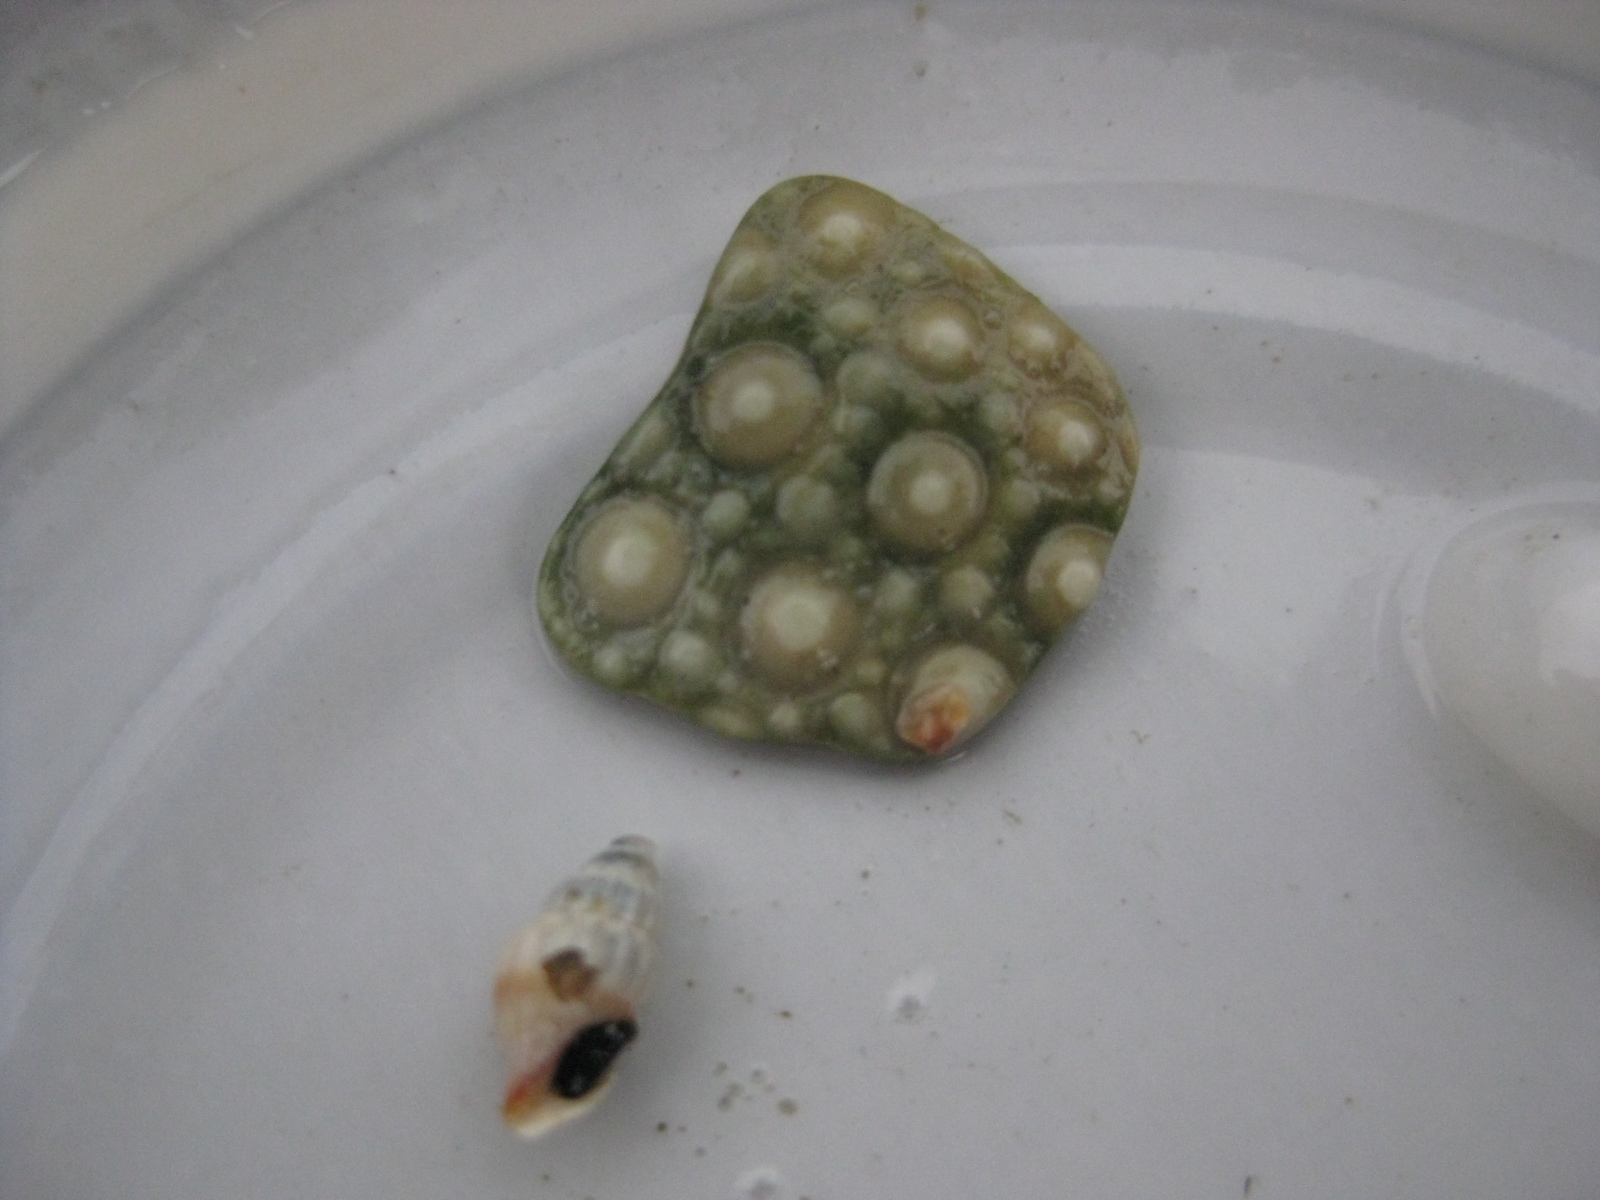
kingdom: Animalia
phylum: Echinodermata
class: Echinoidea
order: Camarodonta
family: Echinometridae
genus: Evechinus
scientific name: Evechinus chloroticus
